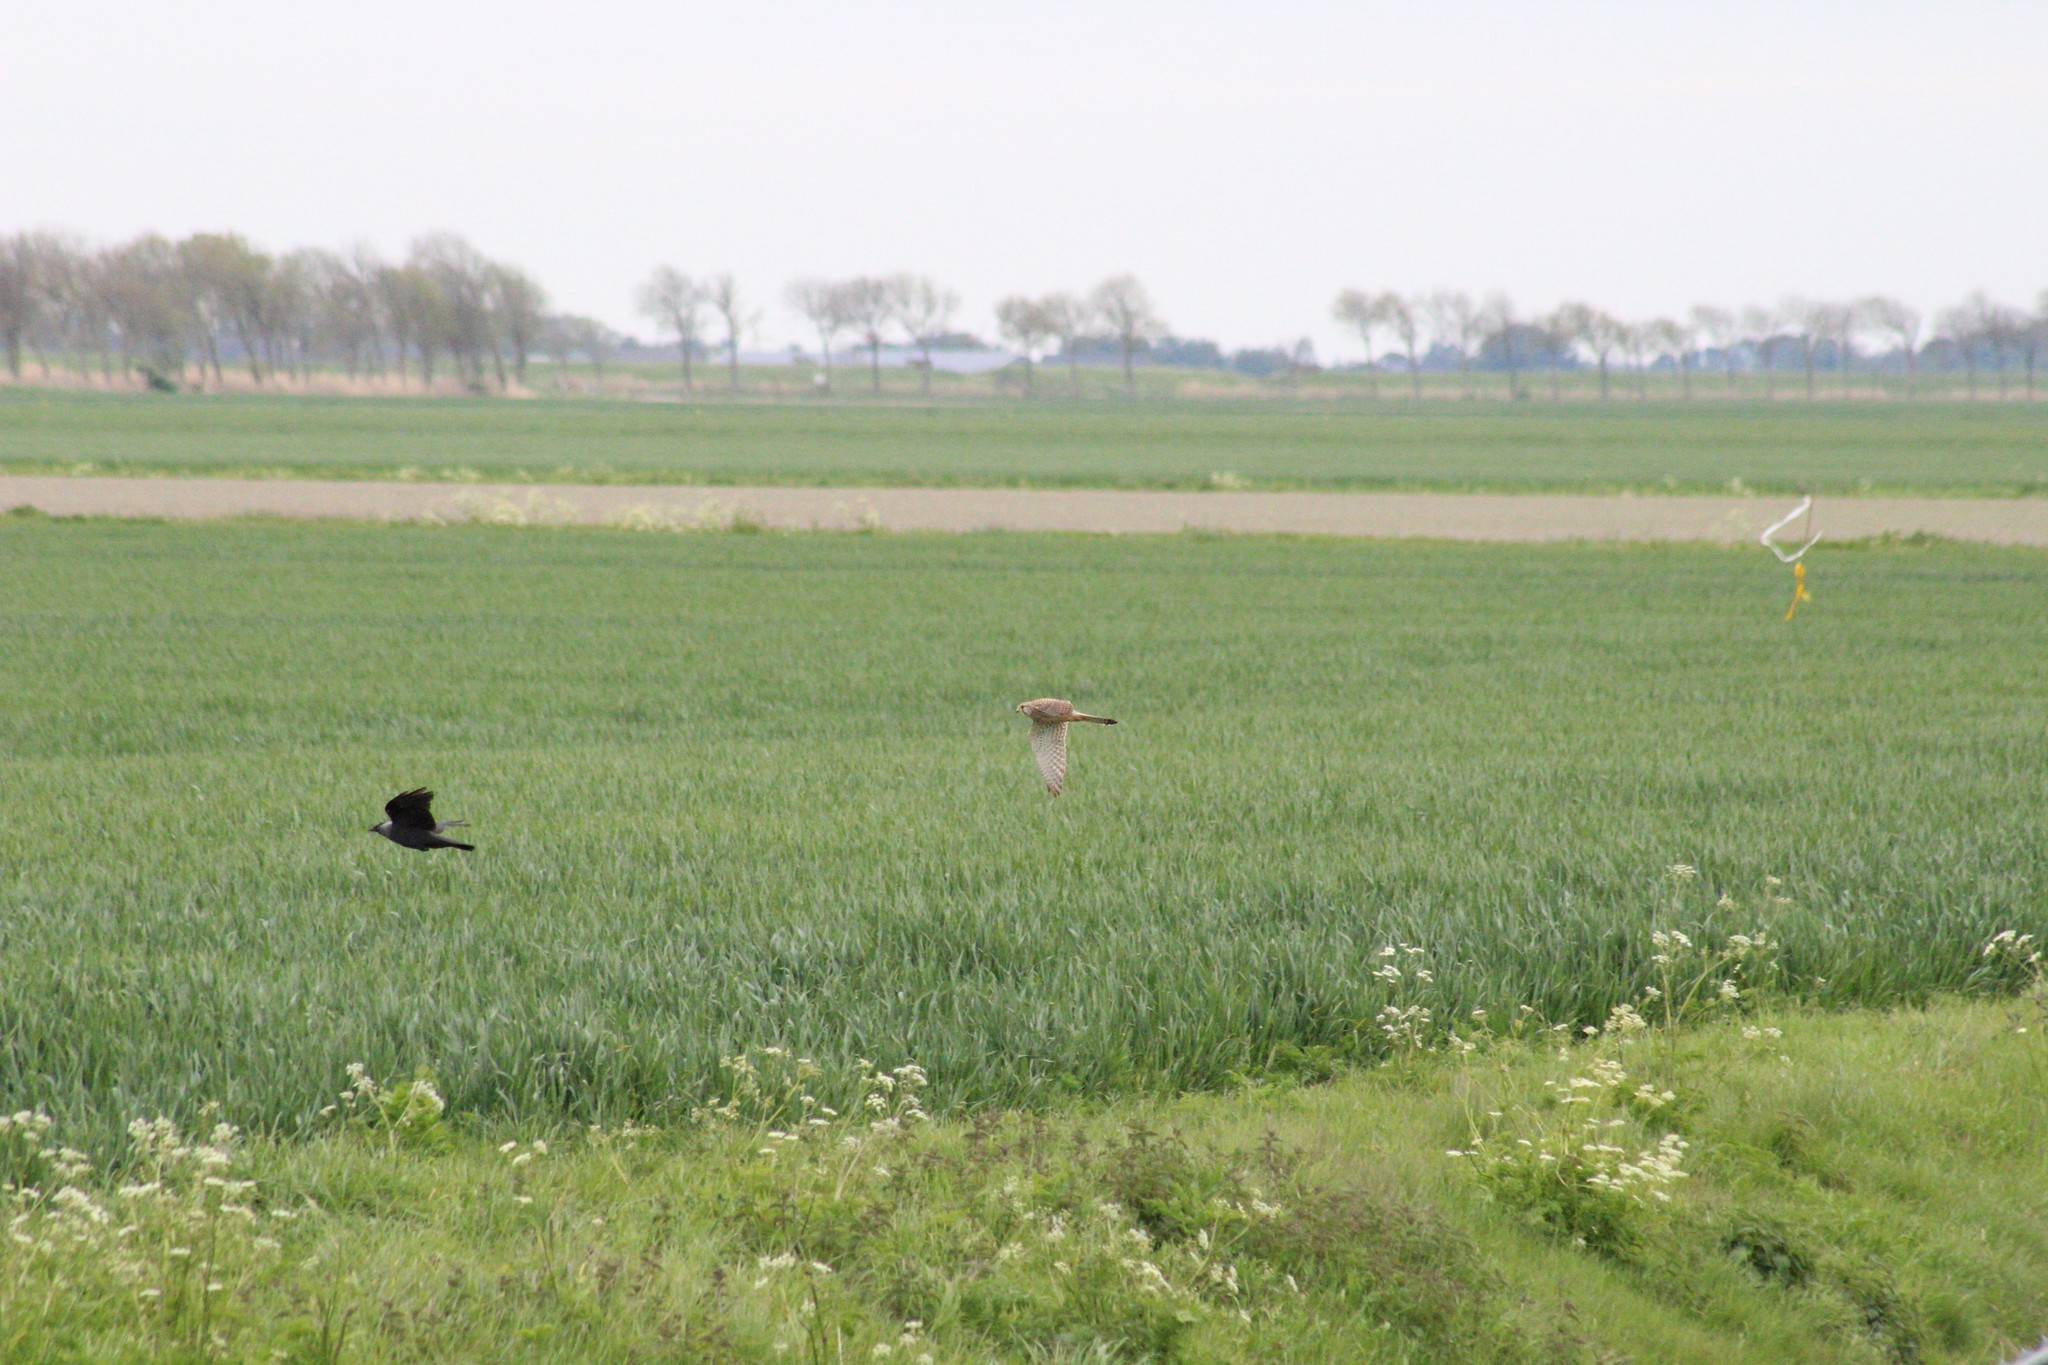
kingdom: Animalia
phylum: Chordata
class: Aves
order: Falconiformes
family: Falconidae
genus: Falco
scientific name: Falco tinnunculus
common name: Common kestrel
